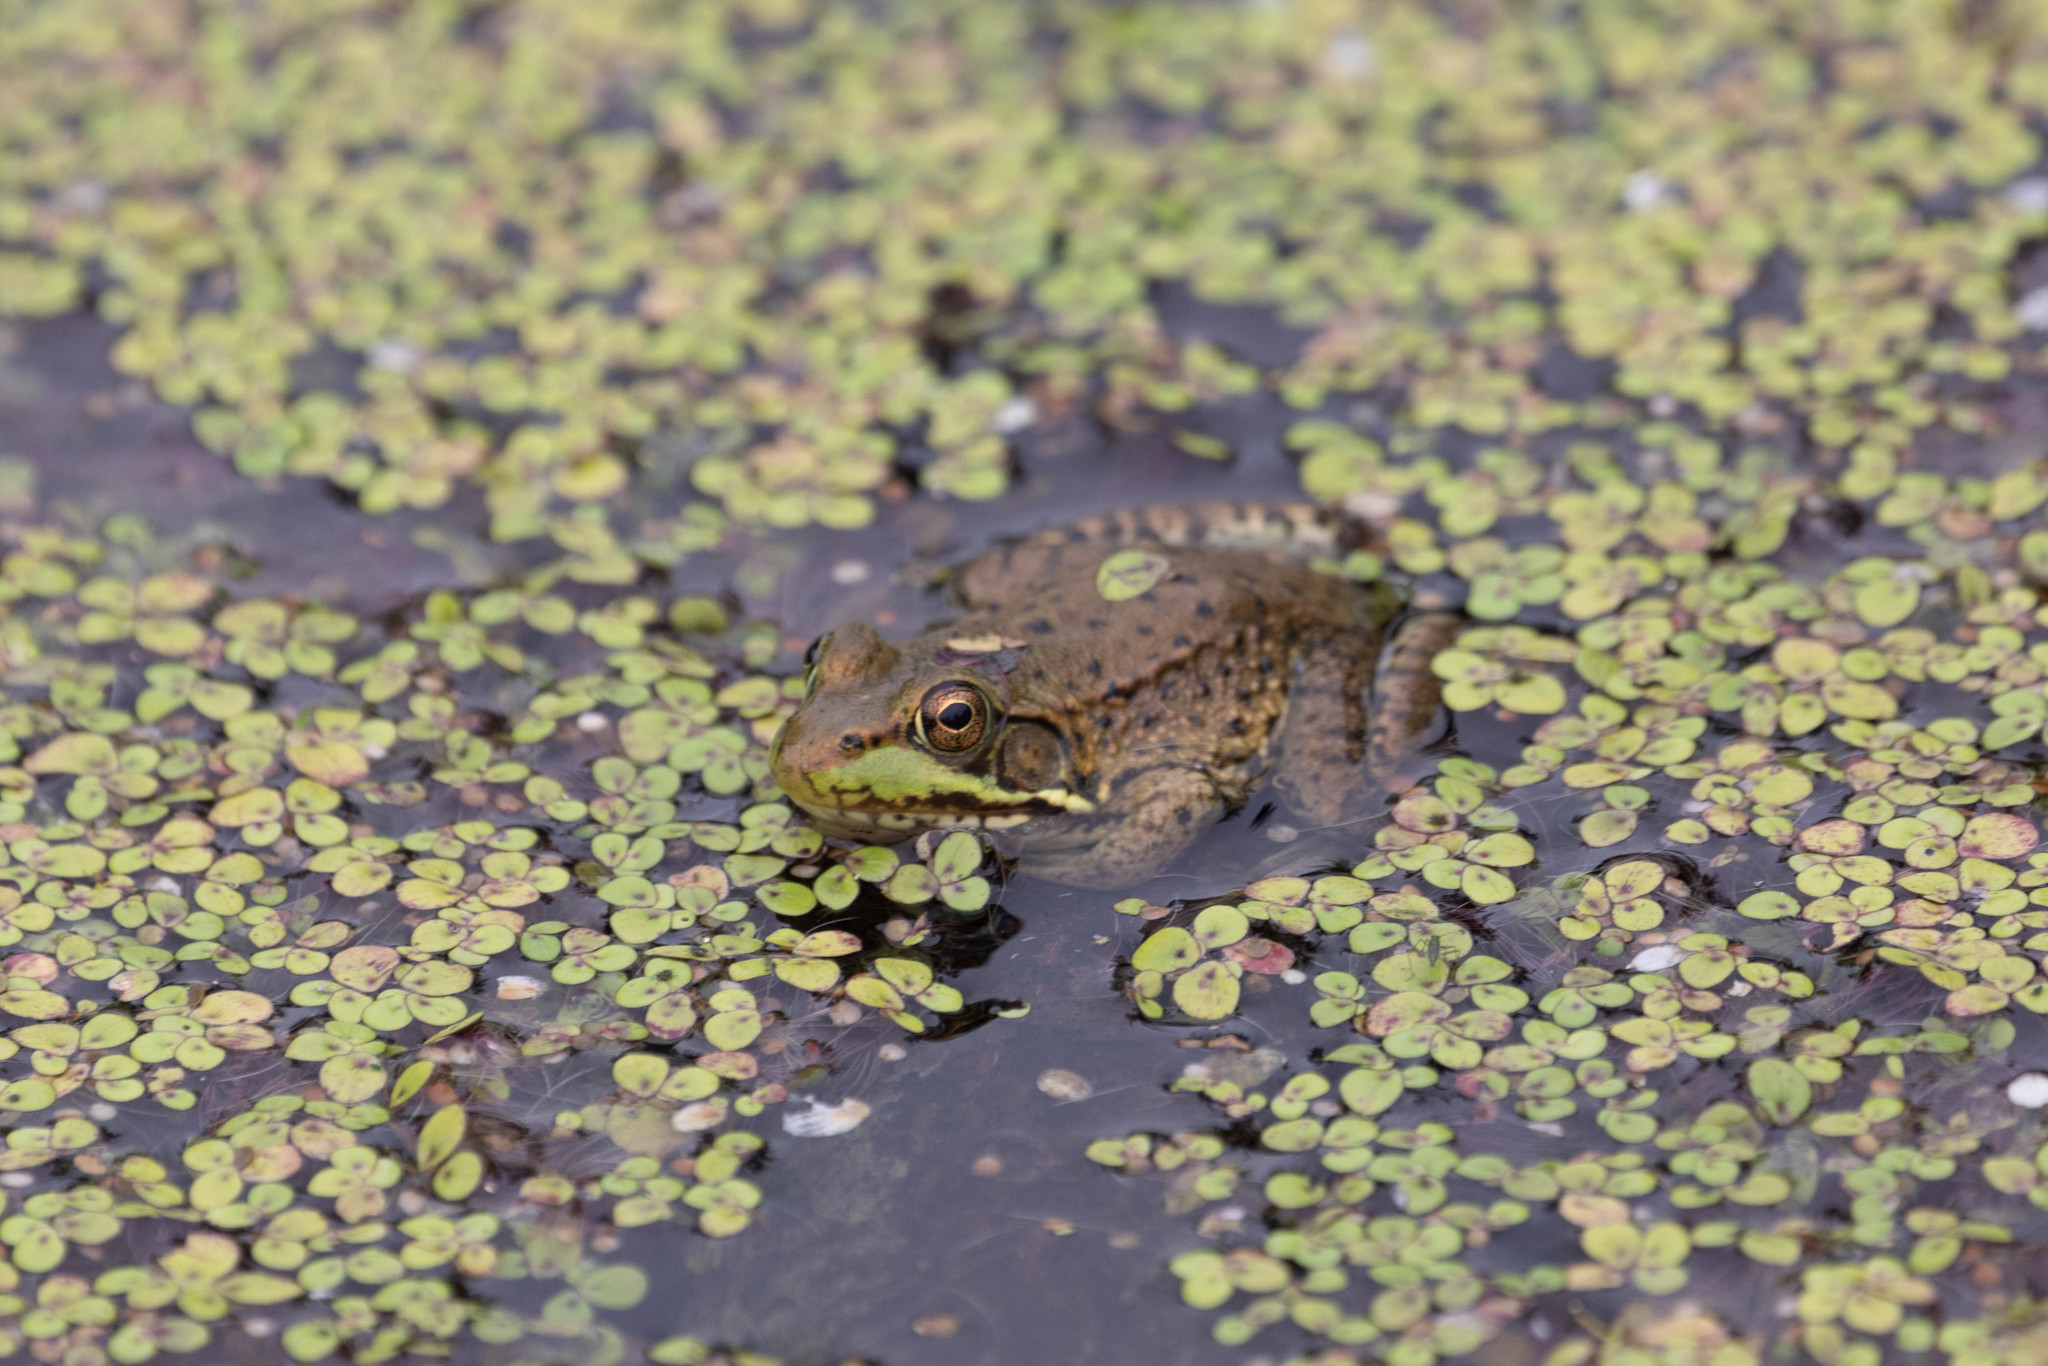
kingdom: Animalia
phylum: Chordata
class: Amphibia
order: Anura
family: Ranidae
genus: Lithobates
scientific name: Lithobates clamitans
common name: Green frog
